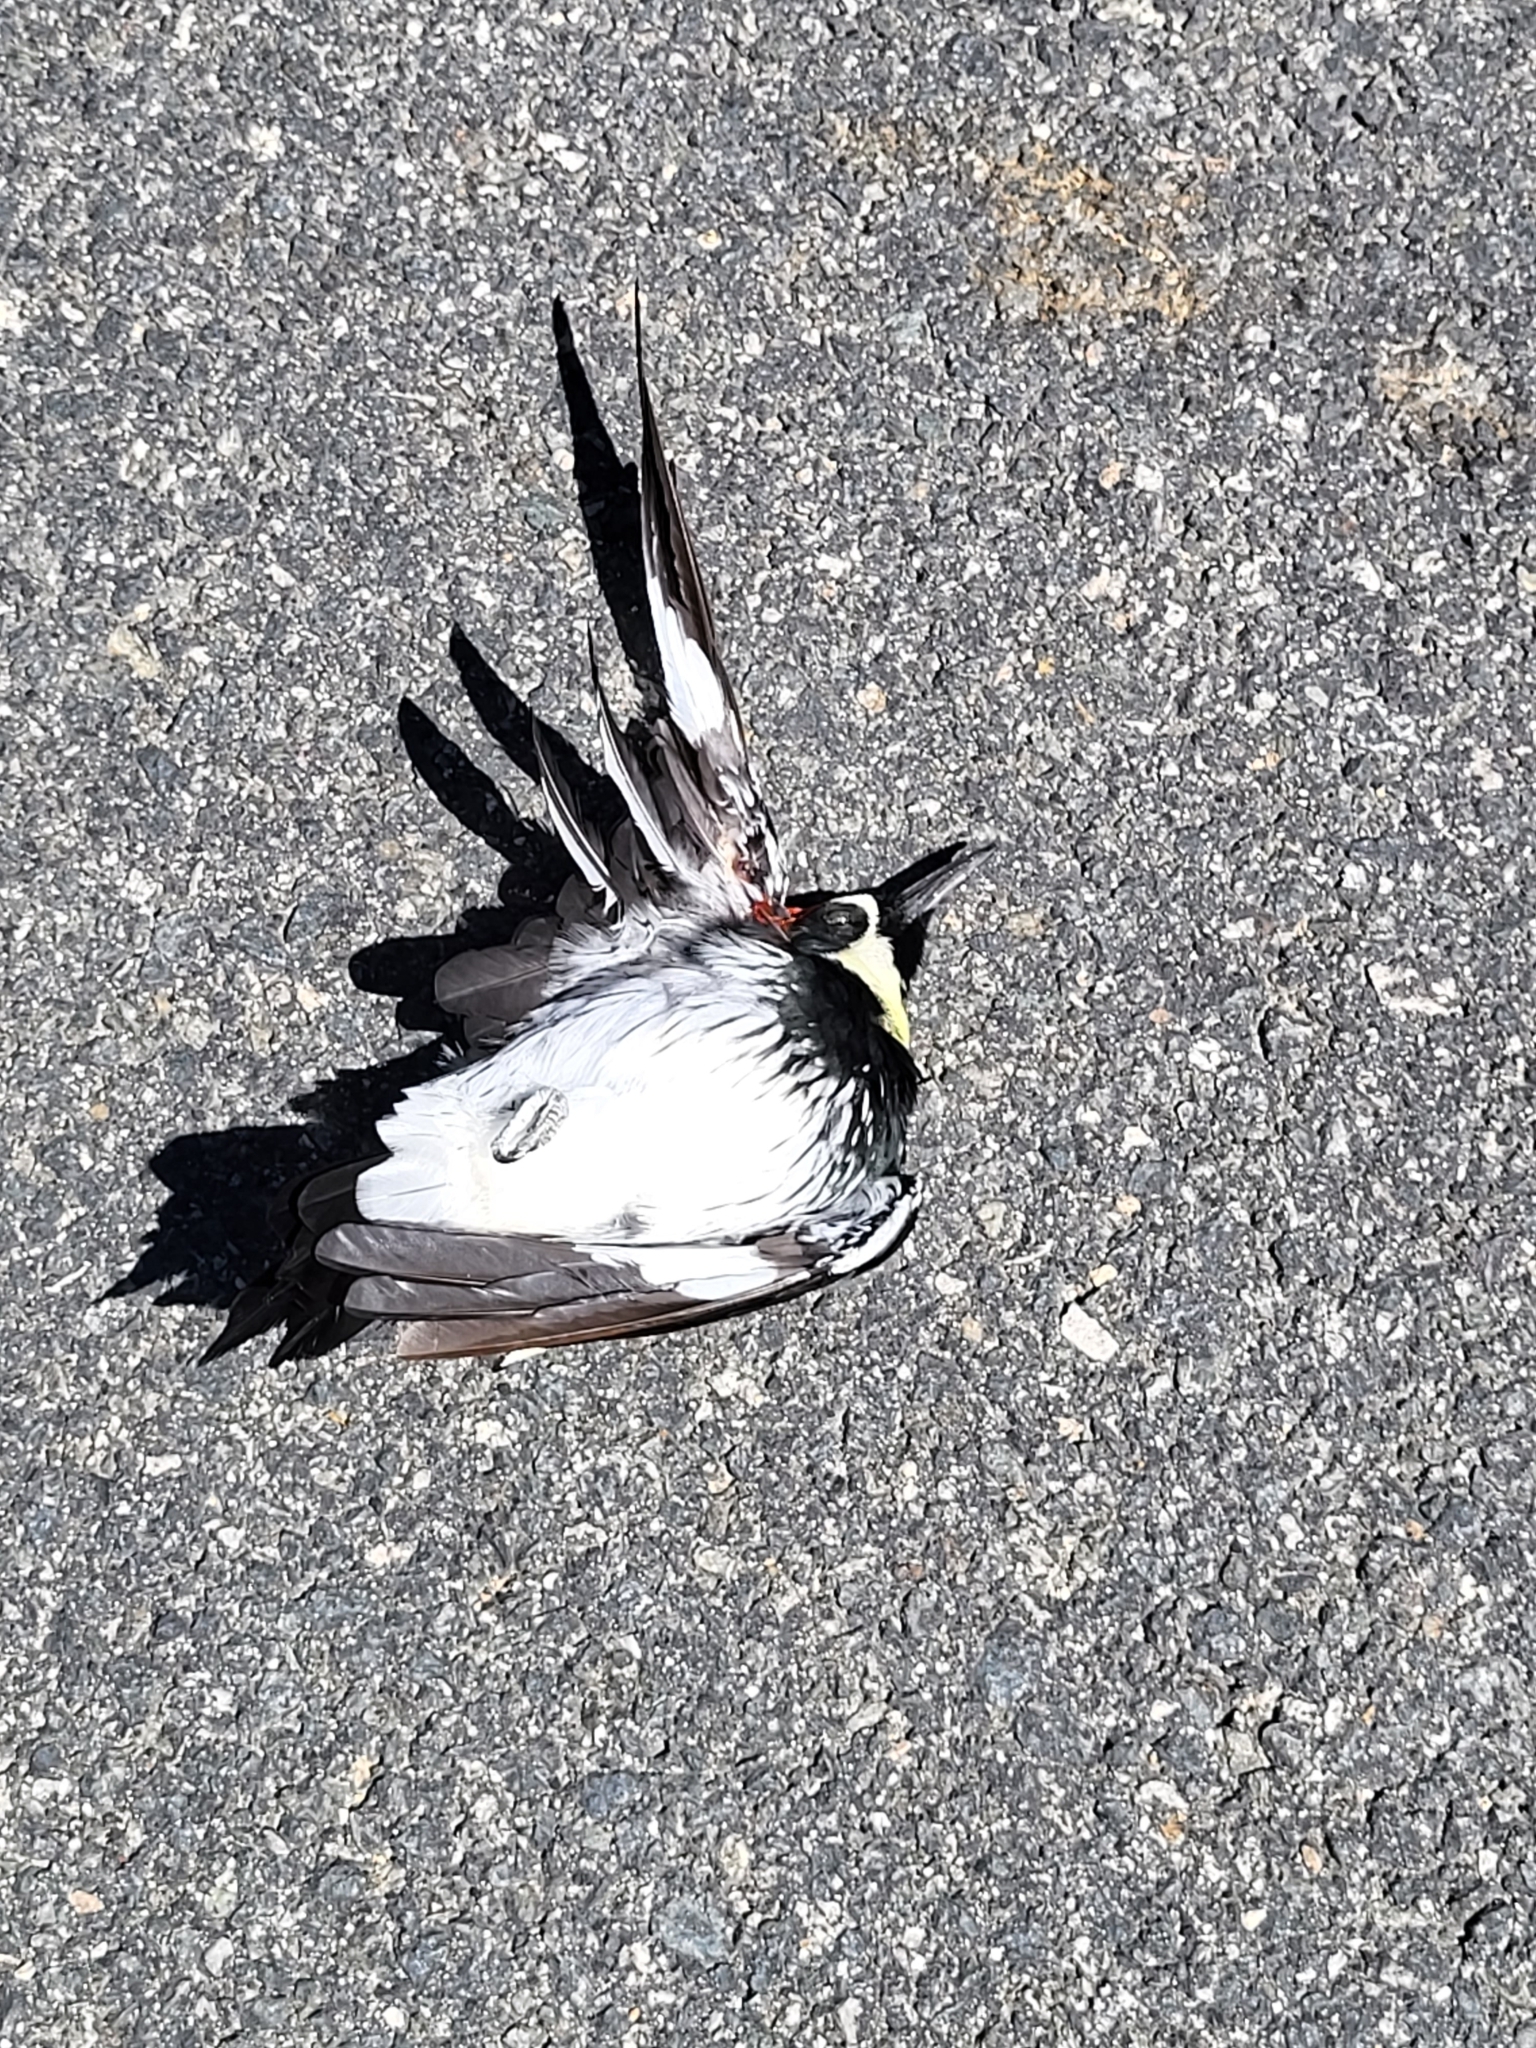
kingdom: Animalia
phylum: Chordata
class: Aves
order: Piciformes
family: Picidae
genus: Melanerpes
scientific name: Melanerpes formicivorus
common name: Acorn woodpecker
